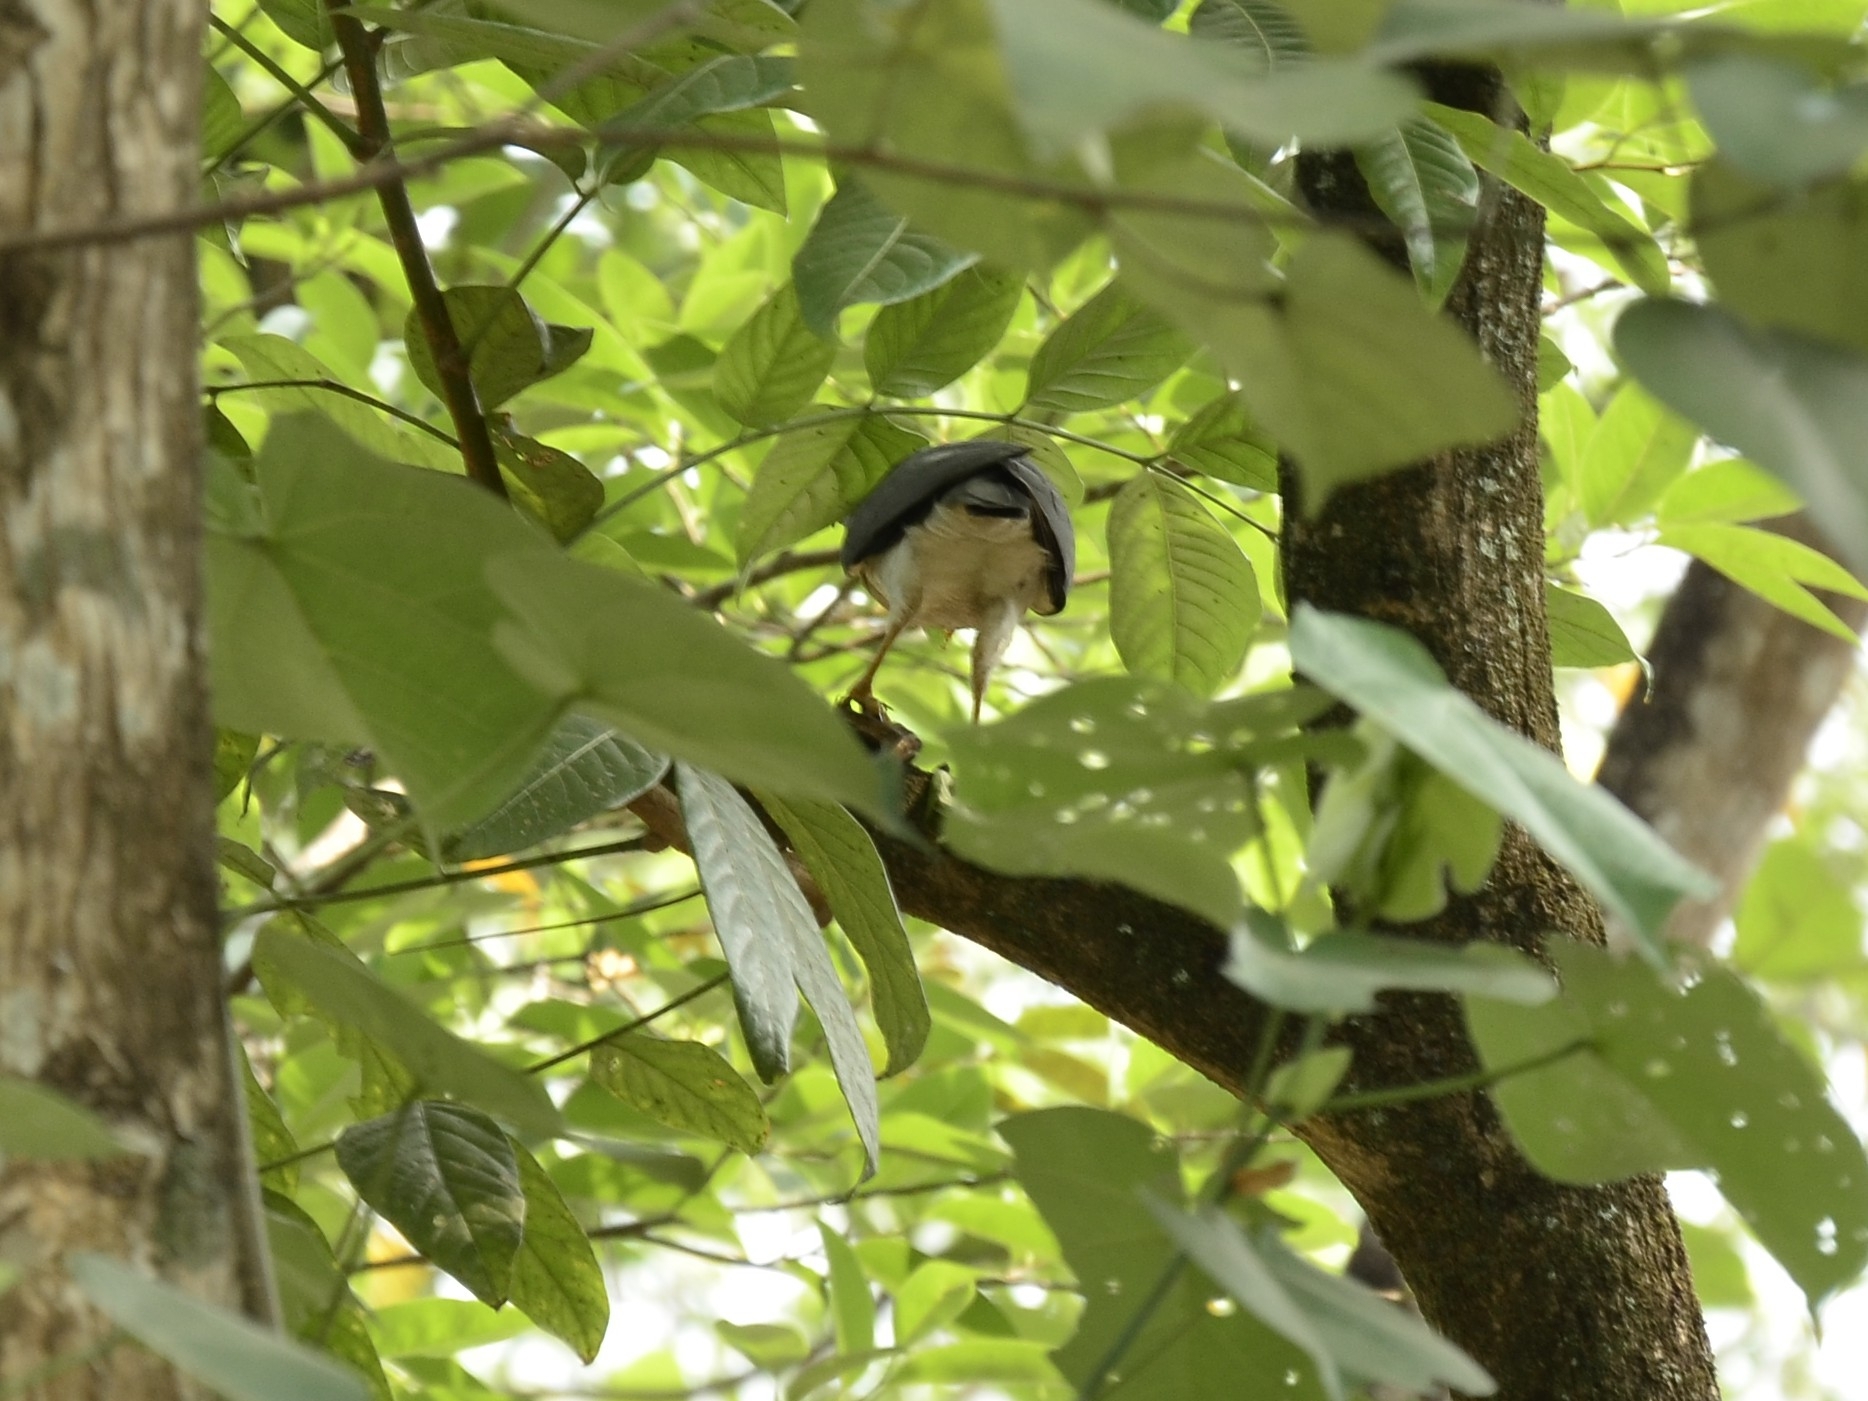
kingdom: Animalia
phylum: Chordata
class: Aves
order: Accipitriformes
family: Accipitridae
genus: Accipiter
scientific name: Accipiter badius
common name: Shikra
